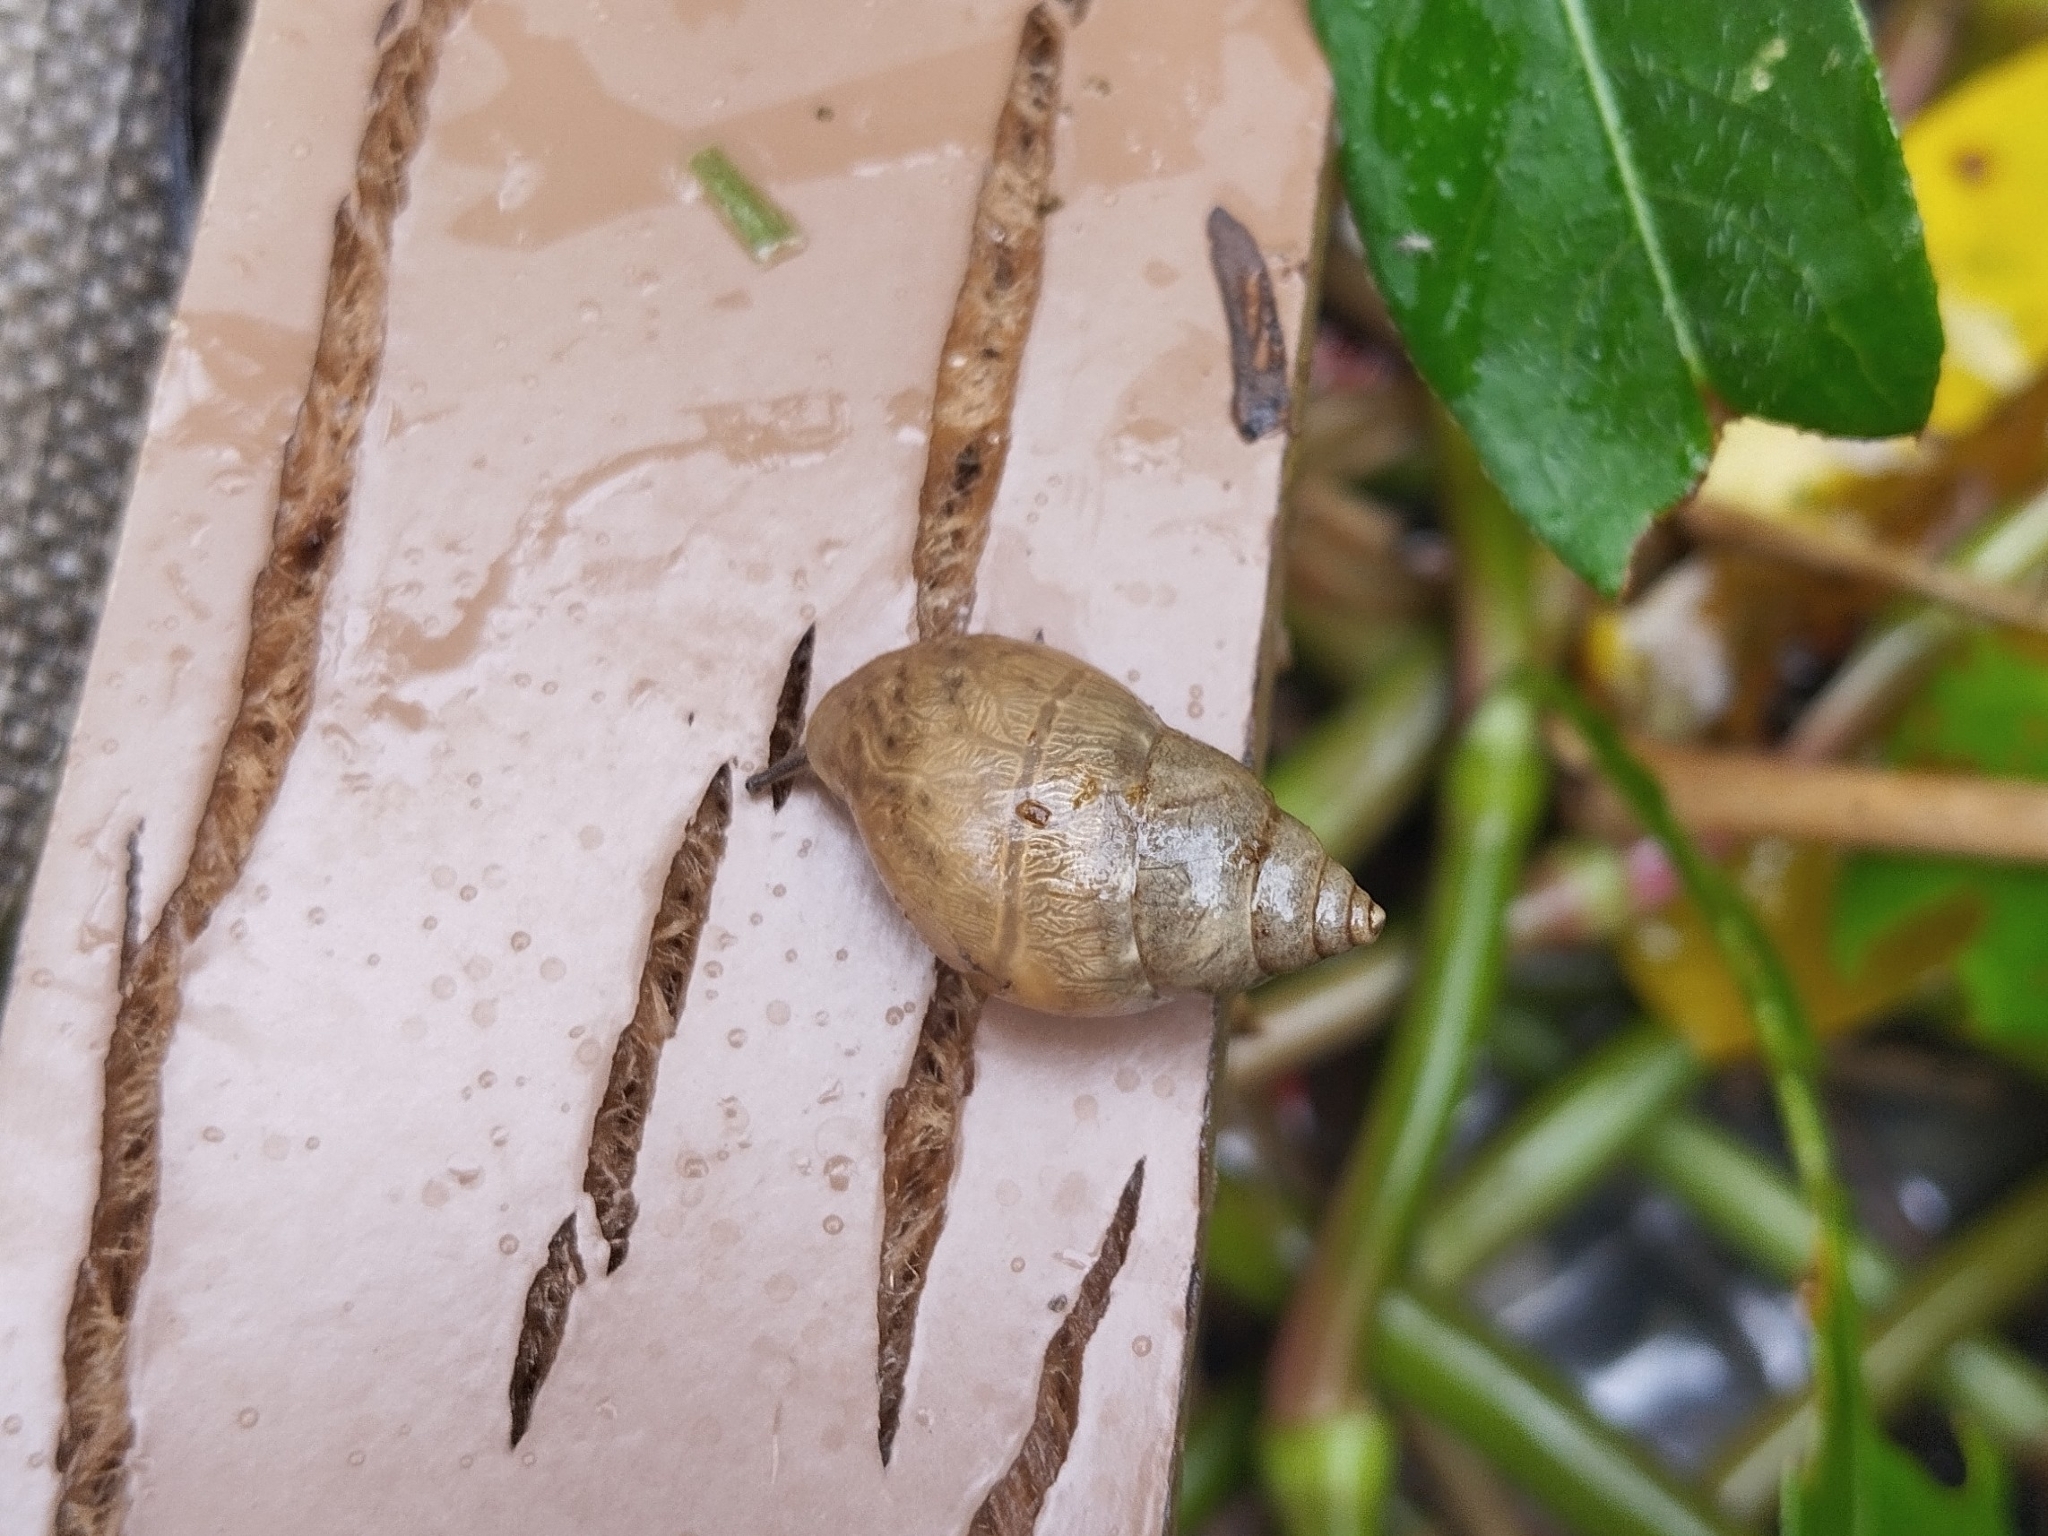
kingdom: Animalia
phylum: Mollusca
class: Gastropoda
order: Stylommatophora
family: Bulimulidae
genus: Bulimulus
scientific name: Bulimulus tenuissimus
